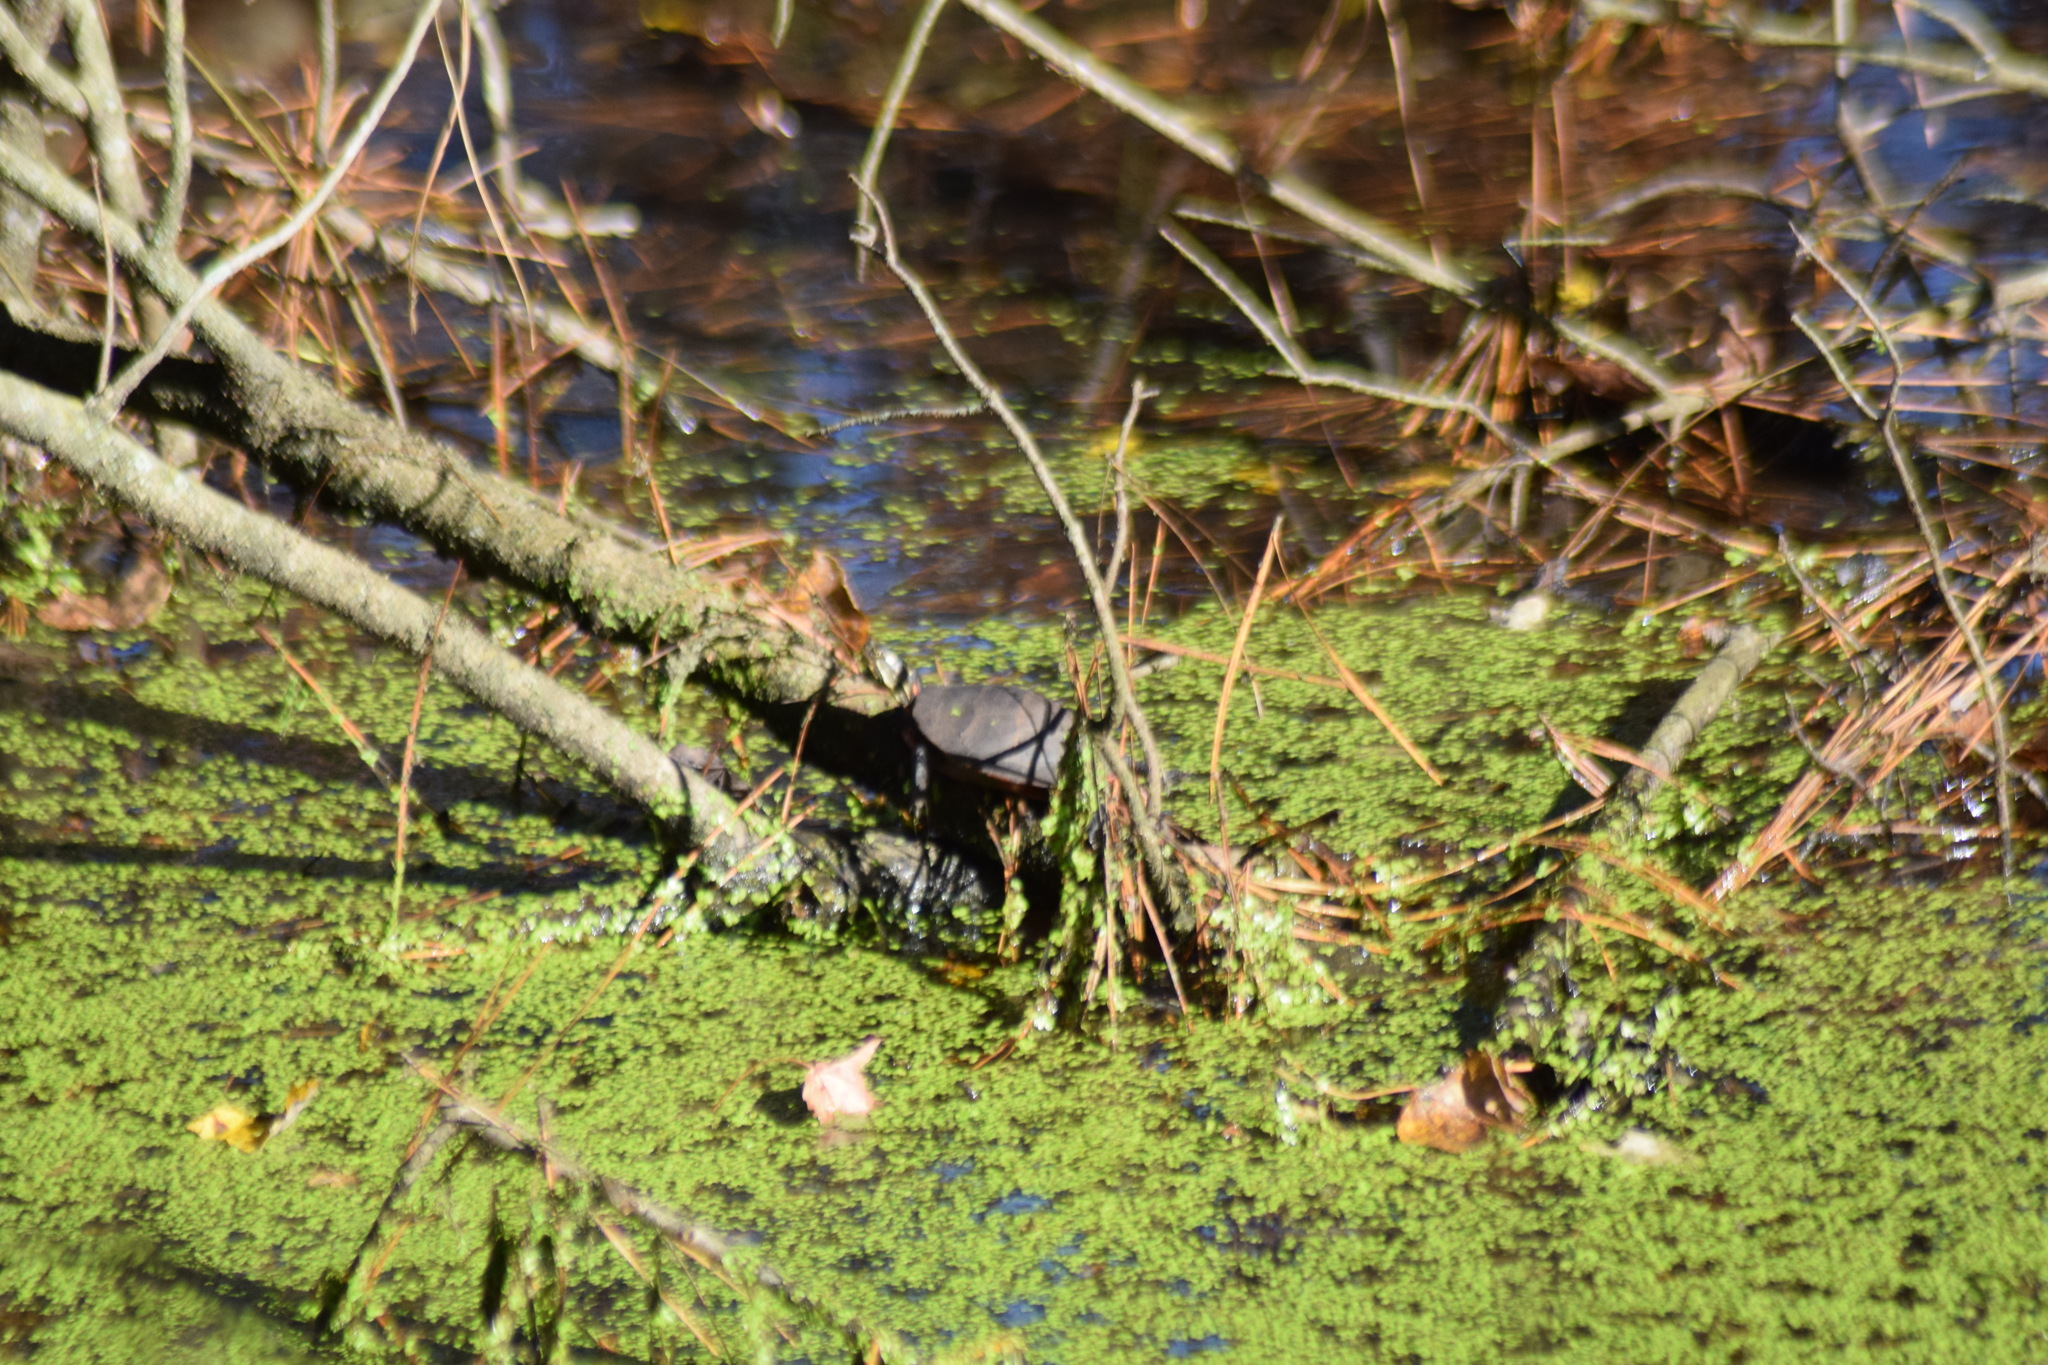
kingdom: Animalia
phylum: Chordata
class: Testudines
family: Emydidae
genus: Chrysemys
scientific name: Chrysemys picta
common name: Painted turtle
